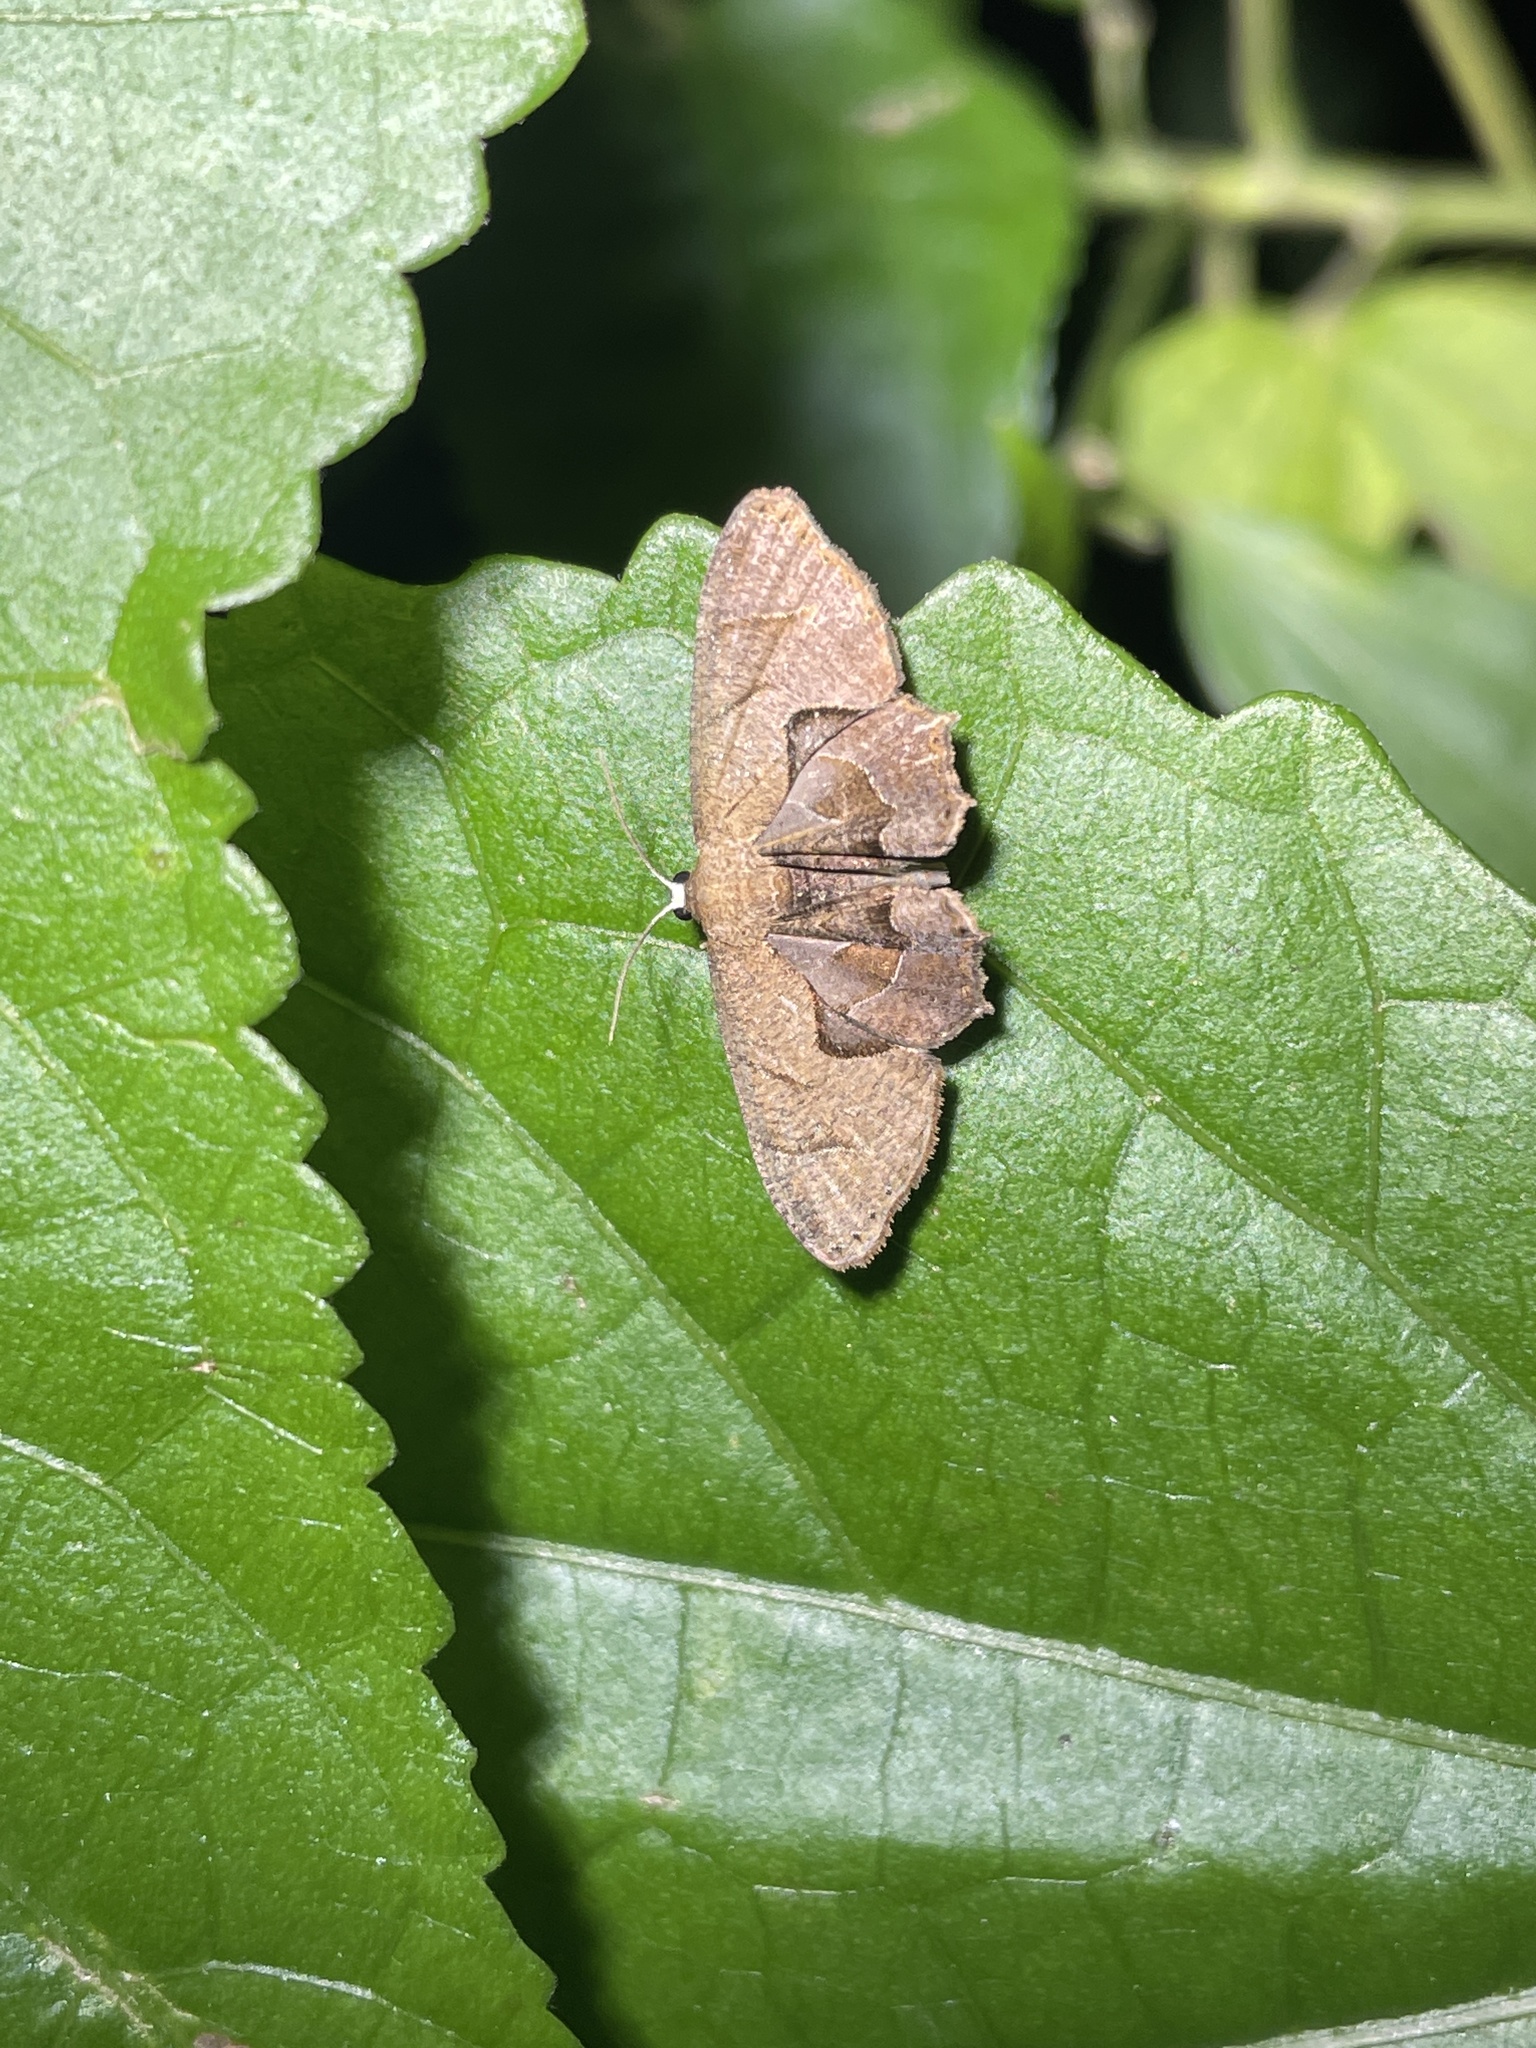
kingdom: Animalia
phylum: Arthropoda
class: Insecta
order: Lepidoptera
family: Uraniidae
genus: Phazaca
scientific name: Phazaca leucocera
